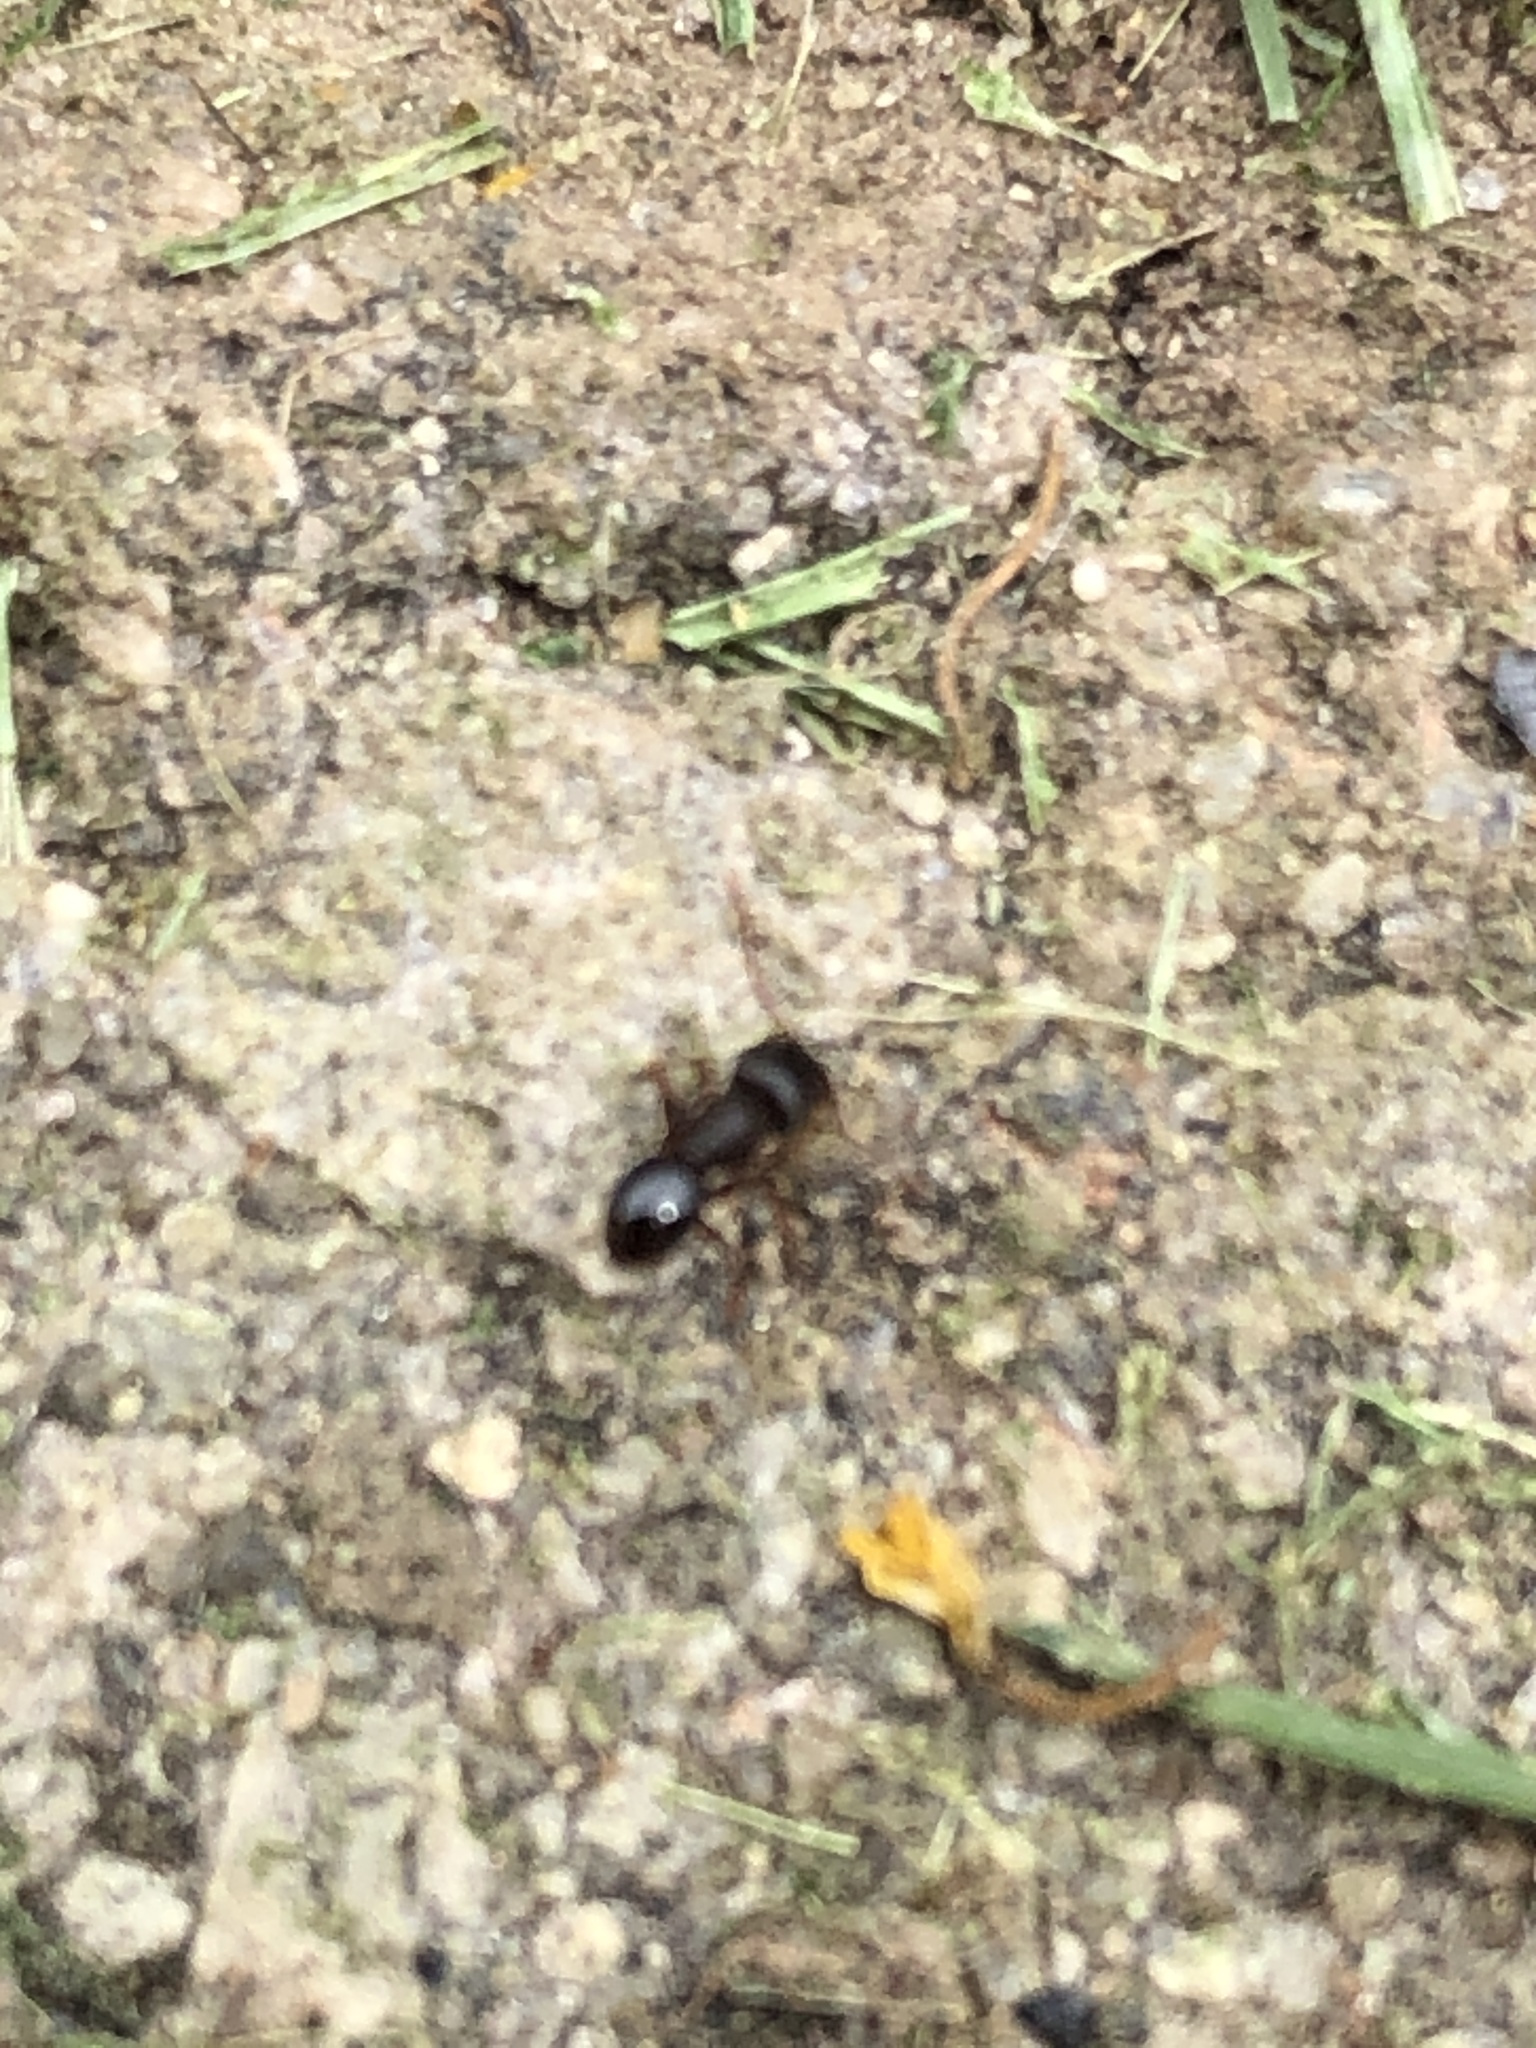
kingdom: Animalia
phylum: Arthropoda
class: Insecta
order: Hymenoptera
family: Formicidae
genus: Tetramorium
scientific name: Tetramorium immigrans
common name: Pavement ant
